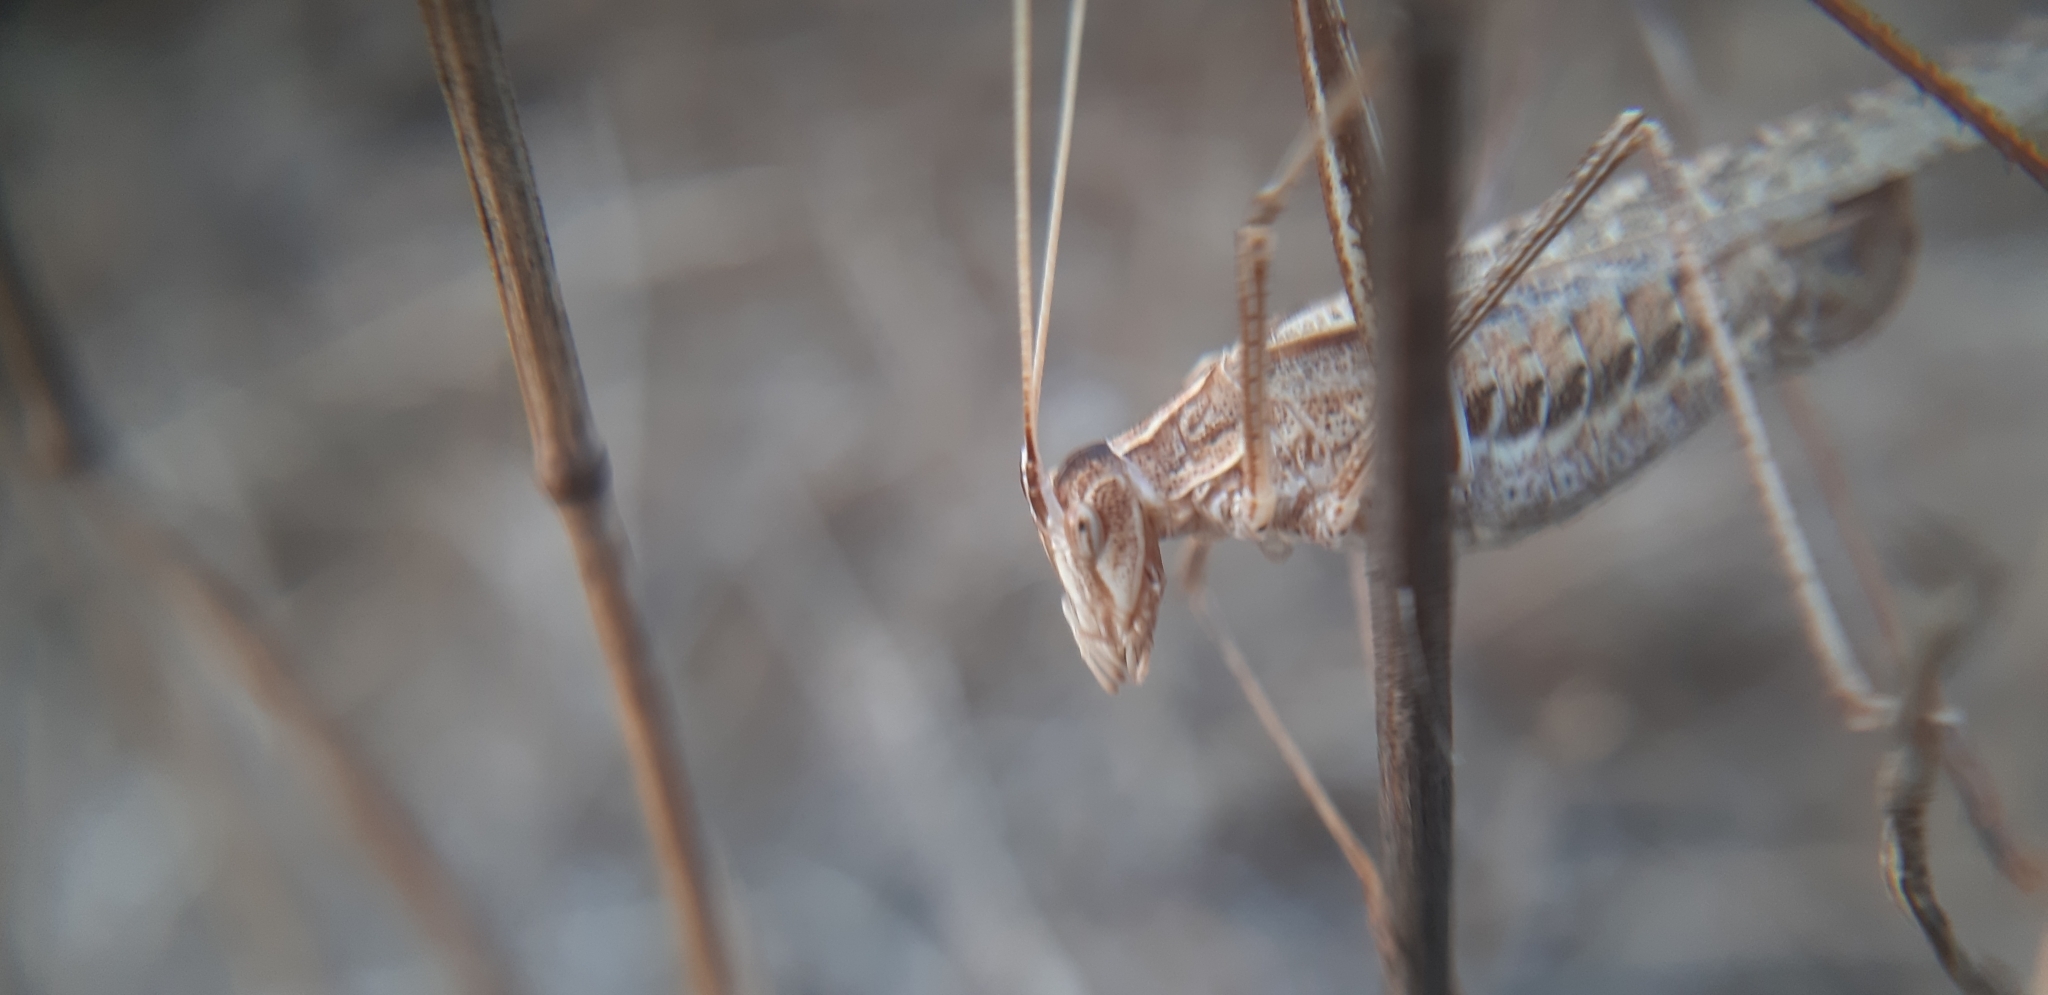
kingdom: Animalia
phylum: Arthropoda
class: Insecta
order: Orthoptera
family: Tettigoniidae
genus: Tylopsis
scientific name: Tylopsis lilifolia
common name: Lily bush-cricket
